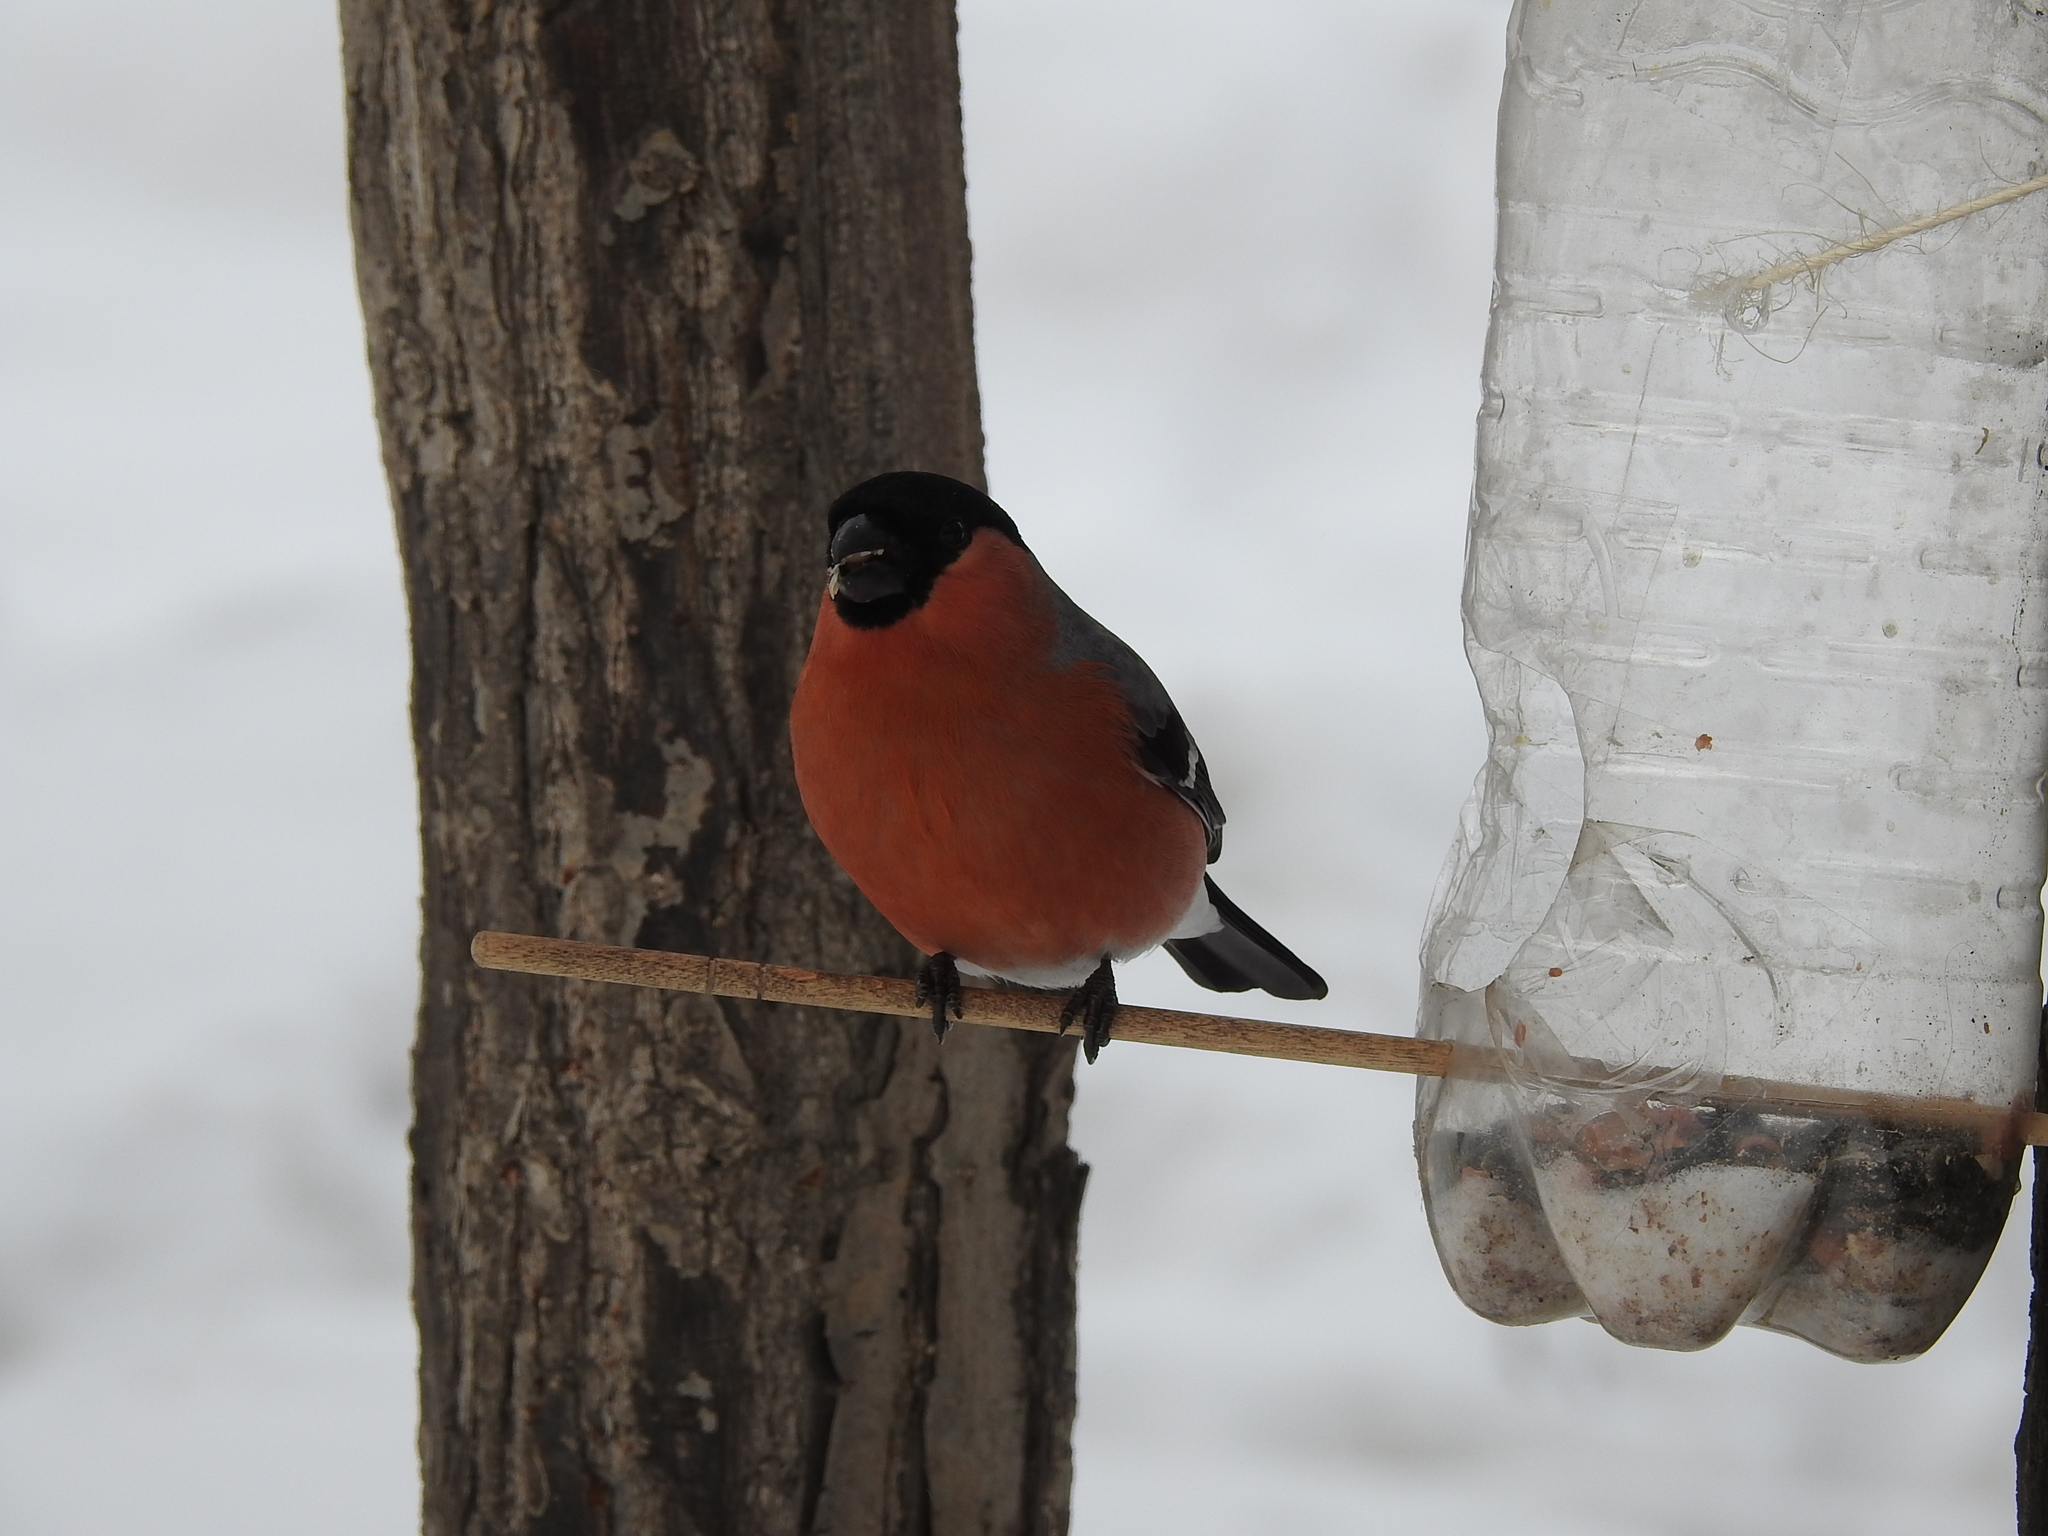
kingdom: Animalia
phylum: Chordata
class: Aves
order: Passeriformes
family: Fringillidae
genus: Pyrrhula
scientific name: Pyrrhula pyrrhula
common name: Eurasian bullfinch
